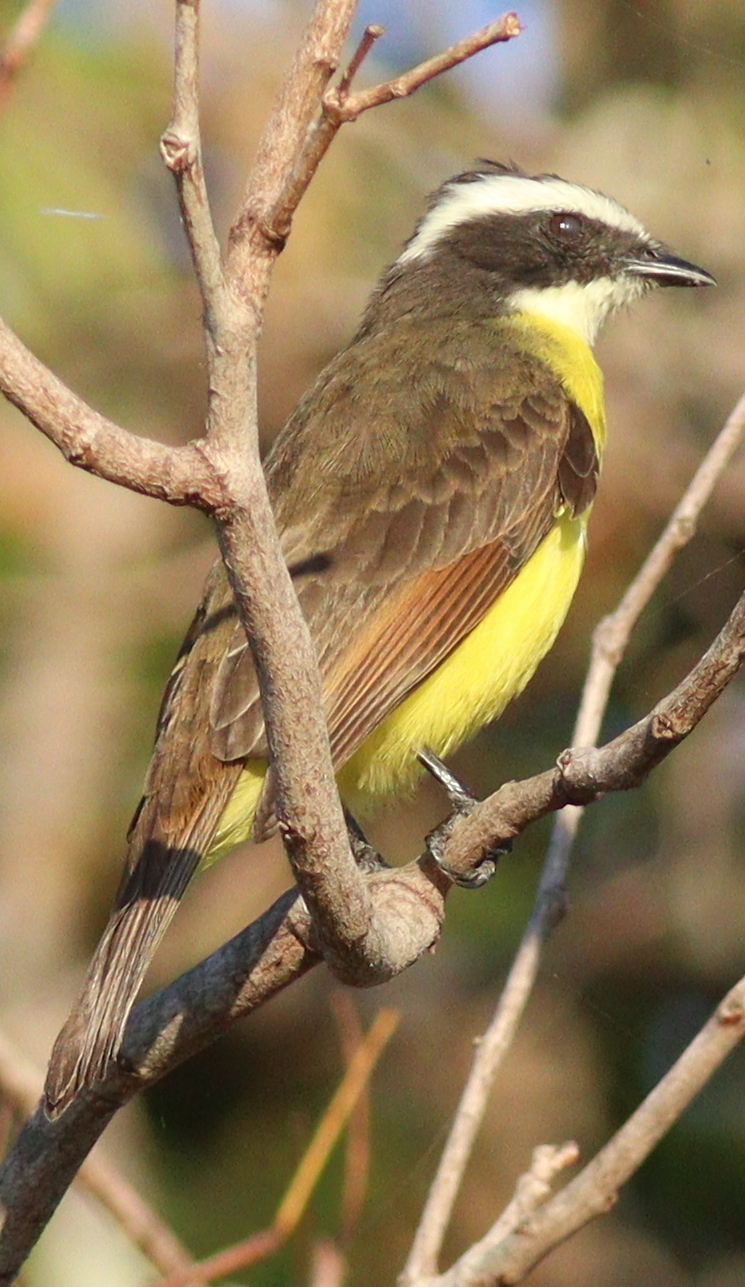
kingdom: Animalia
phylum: Chordata
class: Aves
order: Passeriformes
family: Tyrannidae
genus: Myiozetetes
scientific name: Myiozetetes cayanensis
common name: Rusty-margined flycatcher
